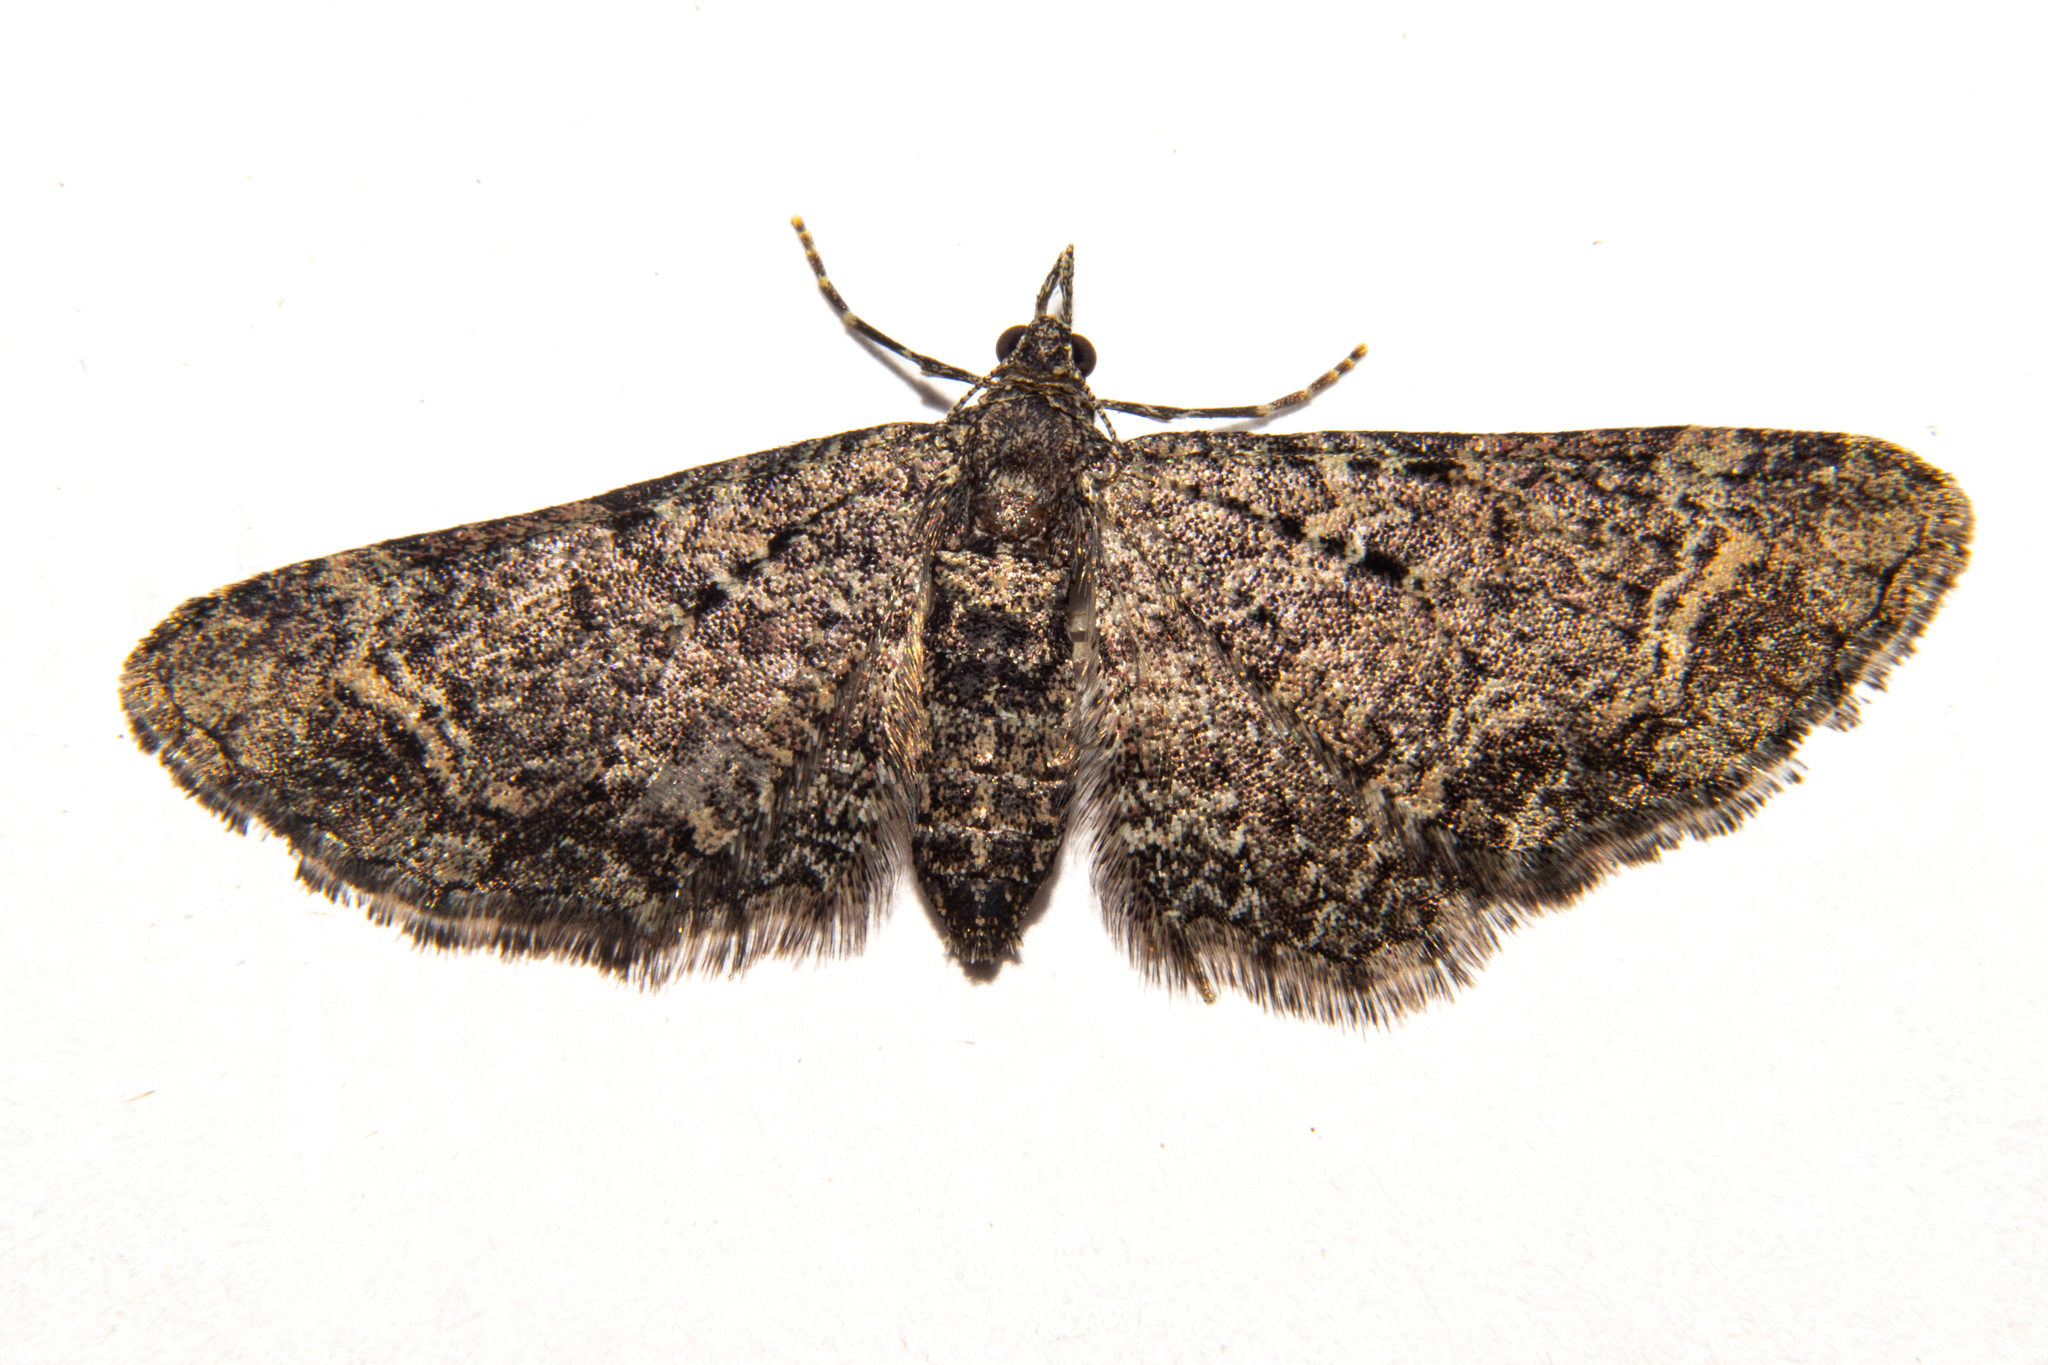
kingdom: Animalia
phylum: Arthropoda
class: Insecta
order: Lepidoptera
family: Geometridae
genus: Pasiphila
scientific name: Pasiphila rubella
